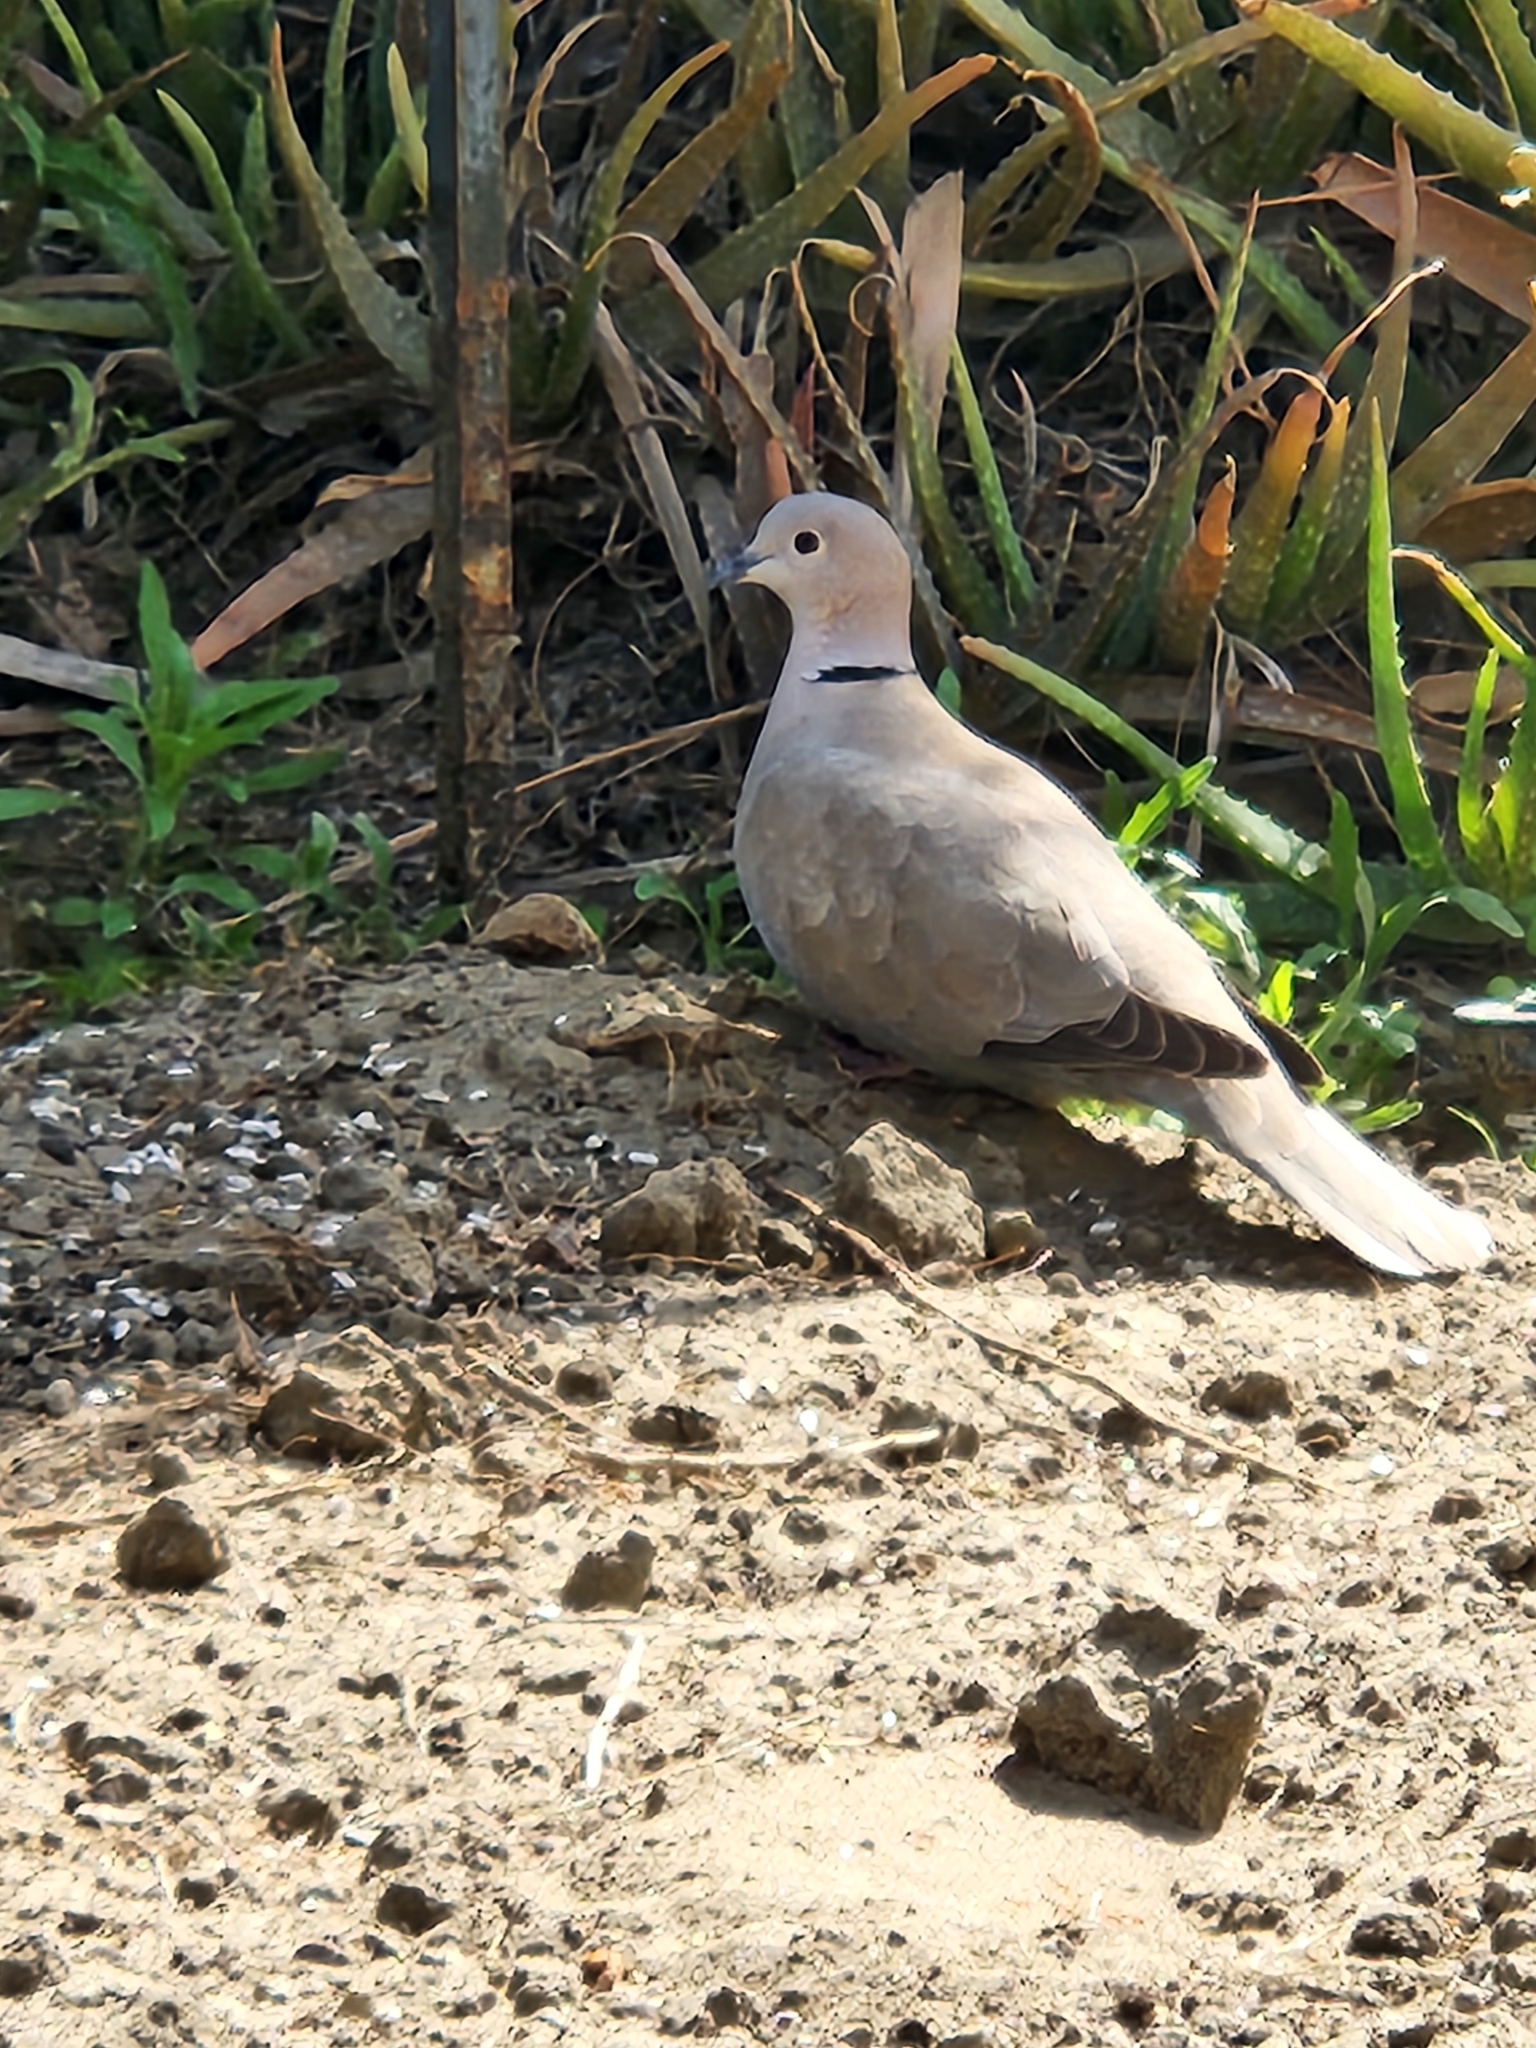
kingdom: Animalia
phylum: Chordata
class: Aves
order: Columbiformes
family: Columbidae
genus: Streptopelia
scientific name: Streptopelia decaocto
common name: Eurasian collared dove
